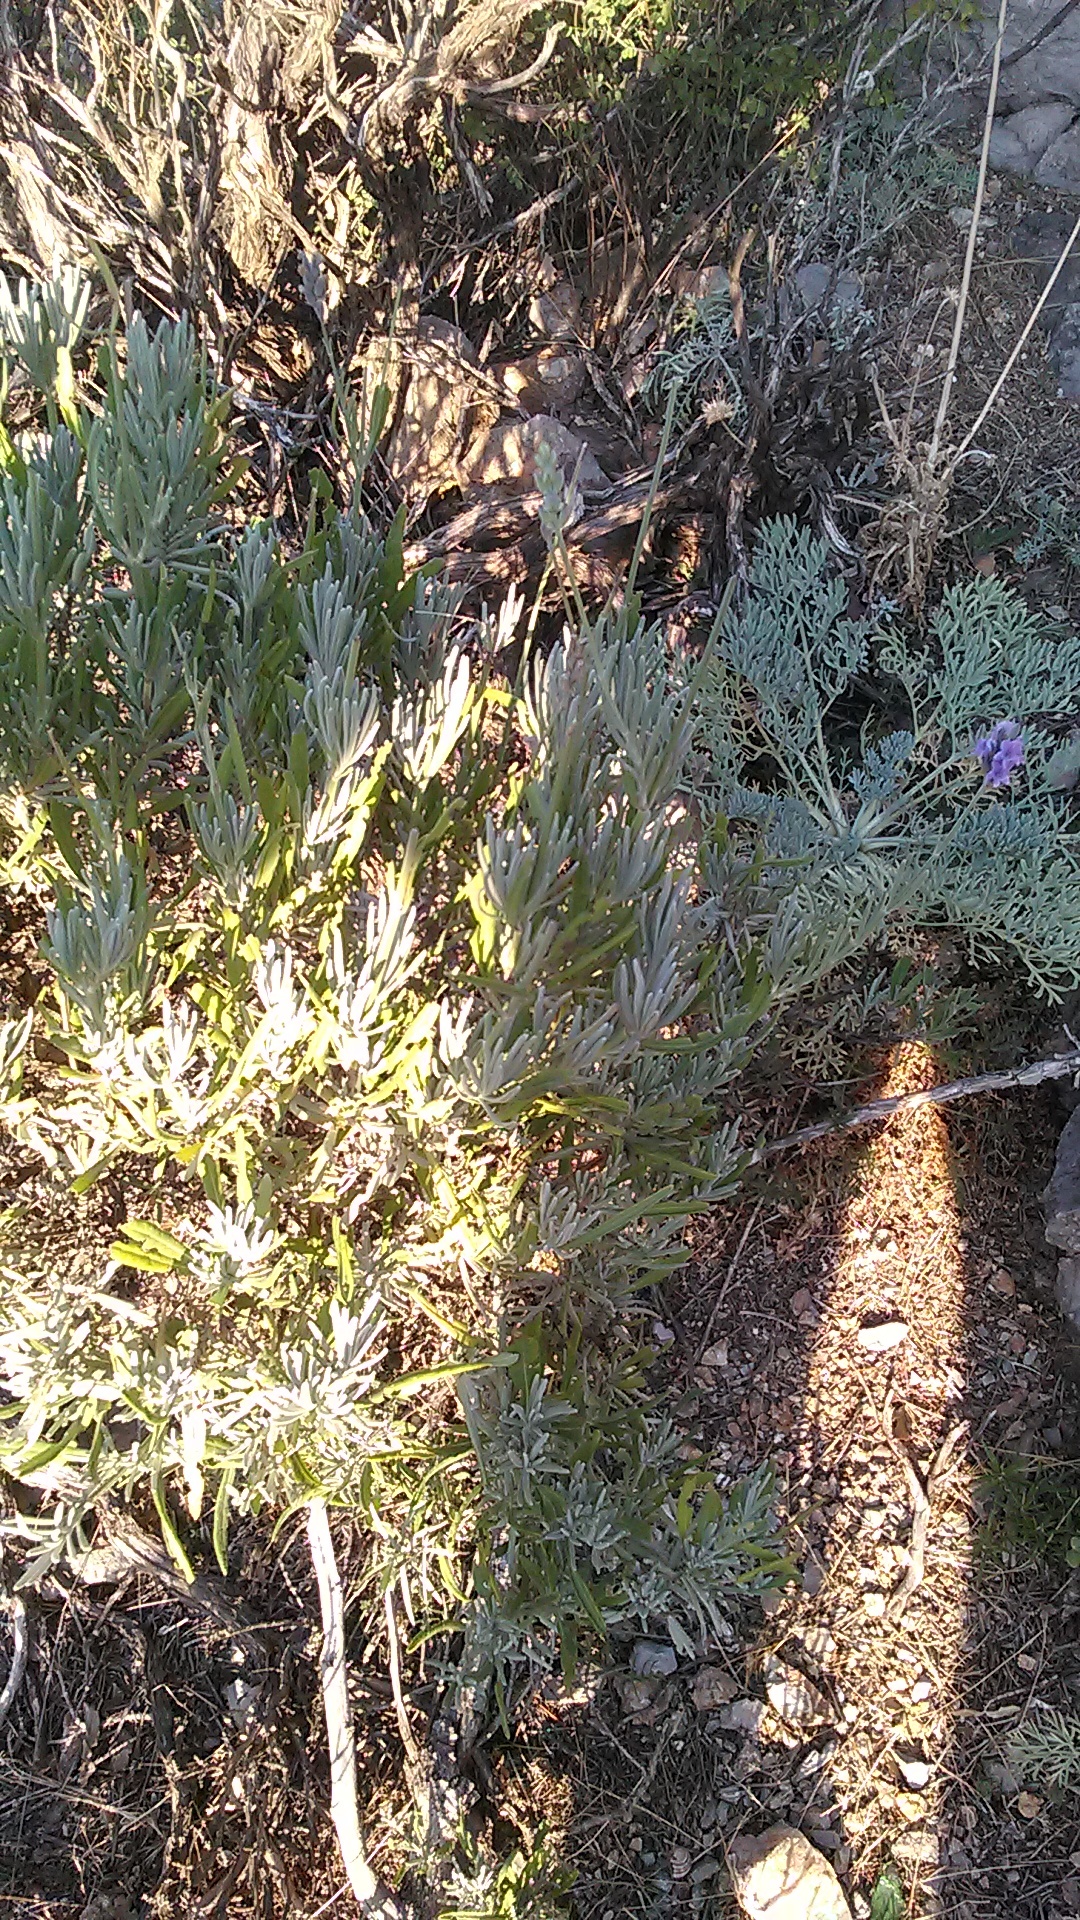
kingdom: Plantae
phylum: Tracheophyta
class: Magnoliopsida
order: Lamiales
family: Lamiaceae
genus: Lavandula
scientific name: Lavandula angustifolia
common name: Garden lavender
